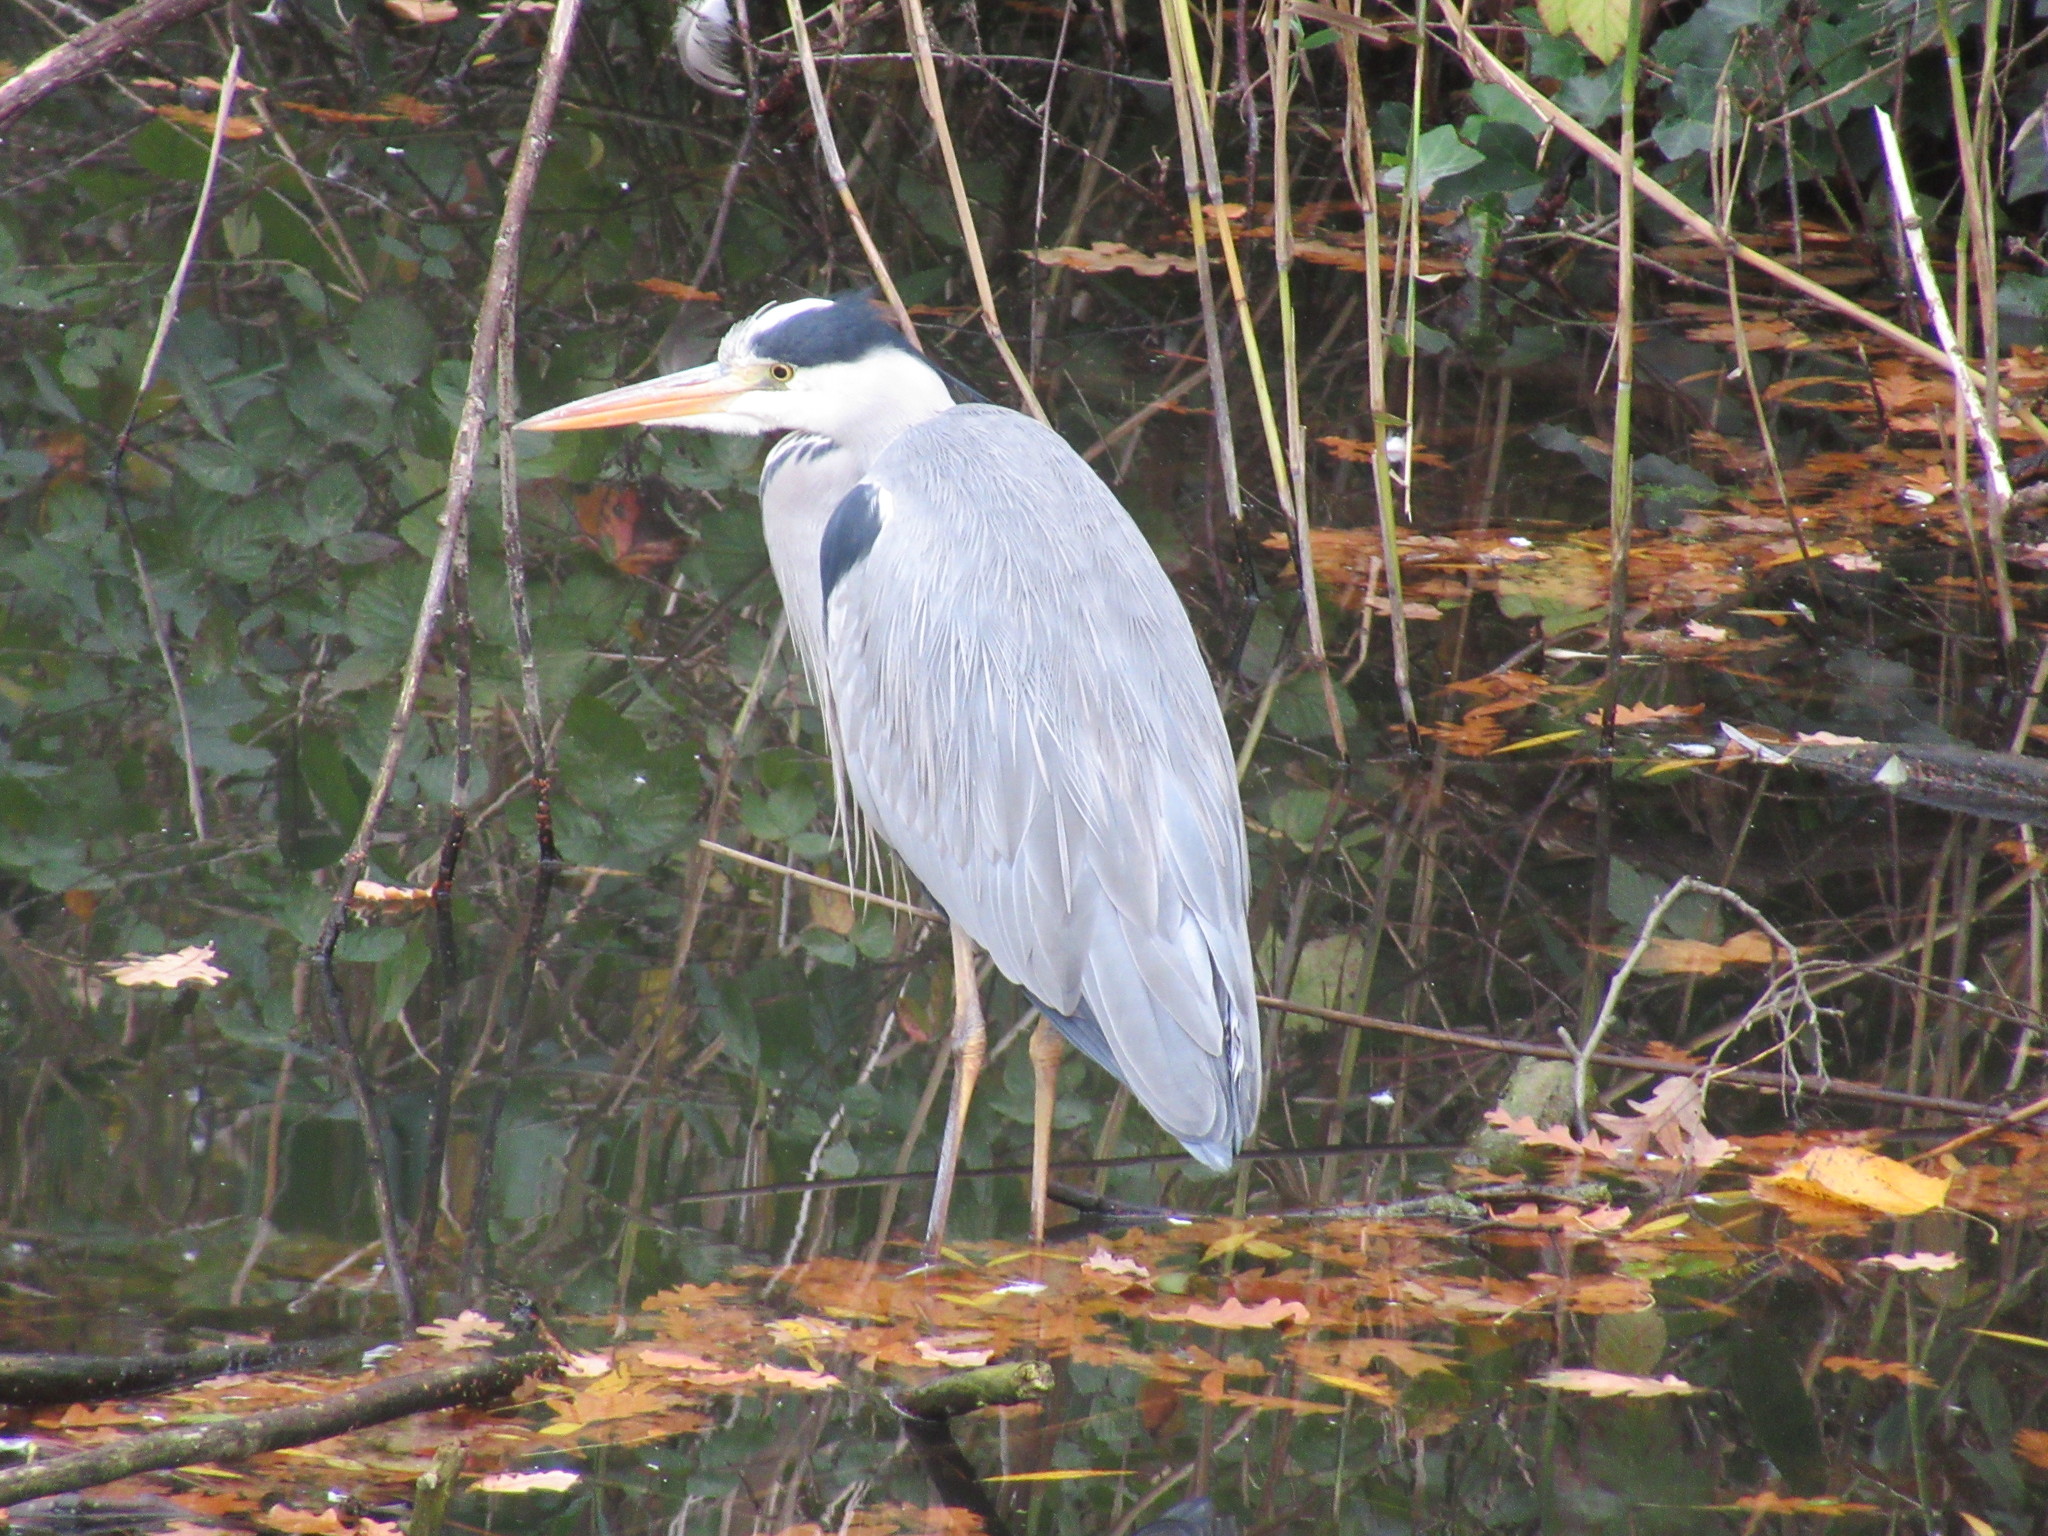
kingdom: Animalia
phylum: Chordata
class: Aves
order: Pelecaniformes
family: Ardeidae
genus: Ardea
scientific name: Ardea cinerea
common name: Grey heron
